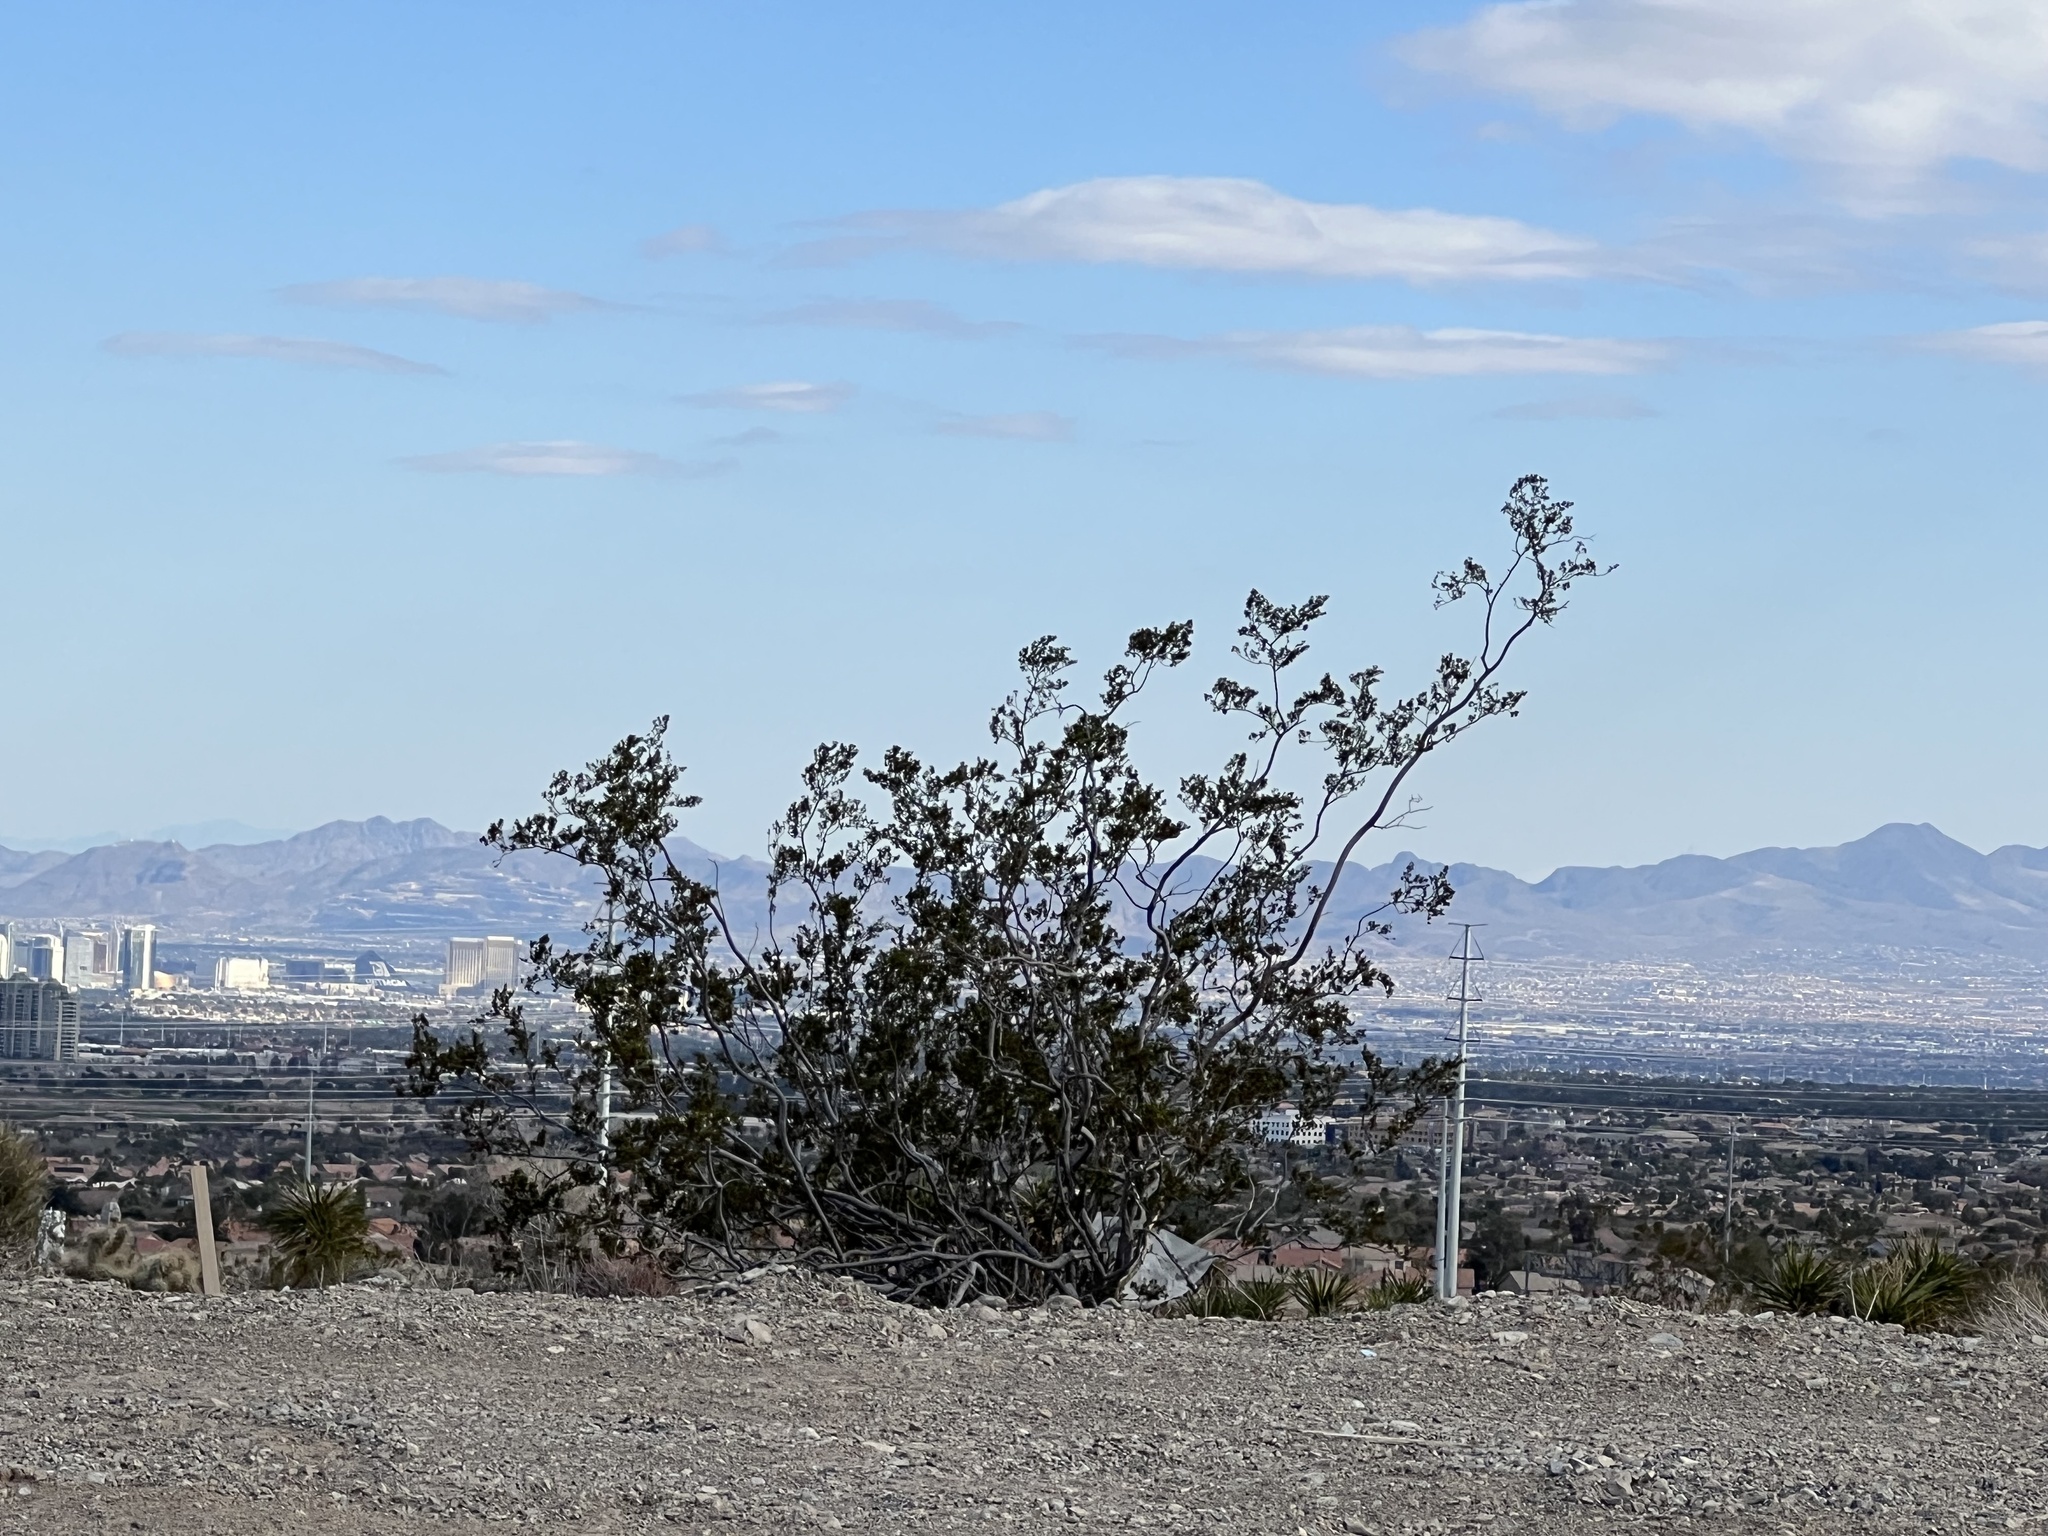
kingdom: Plantae
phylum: Tracheophyta
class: Magnoliopsida
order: Zygophyllales
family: Zygophyllaceae
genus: Larrea
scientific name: Larrea tridentata
